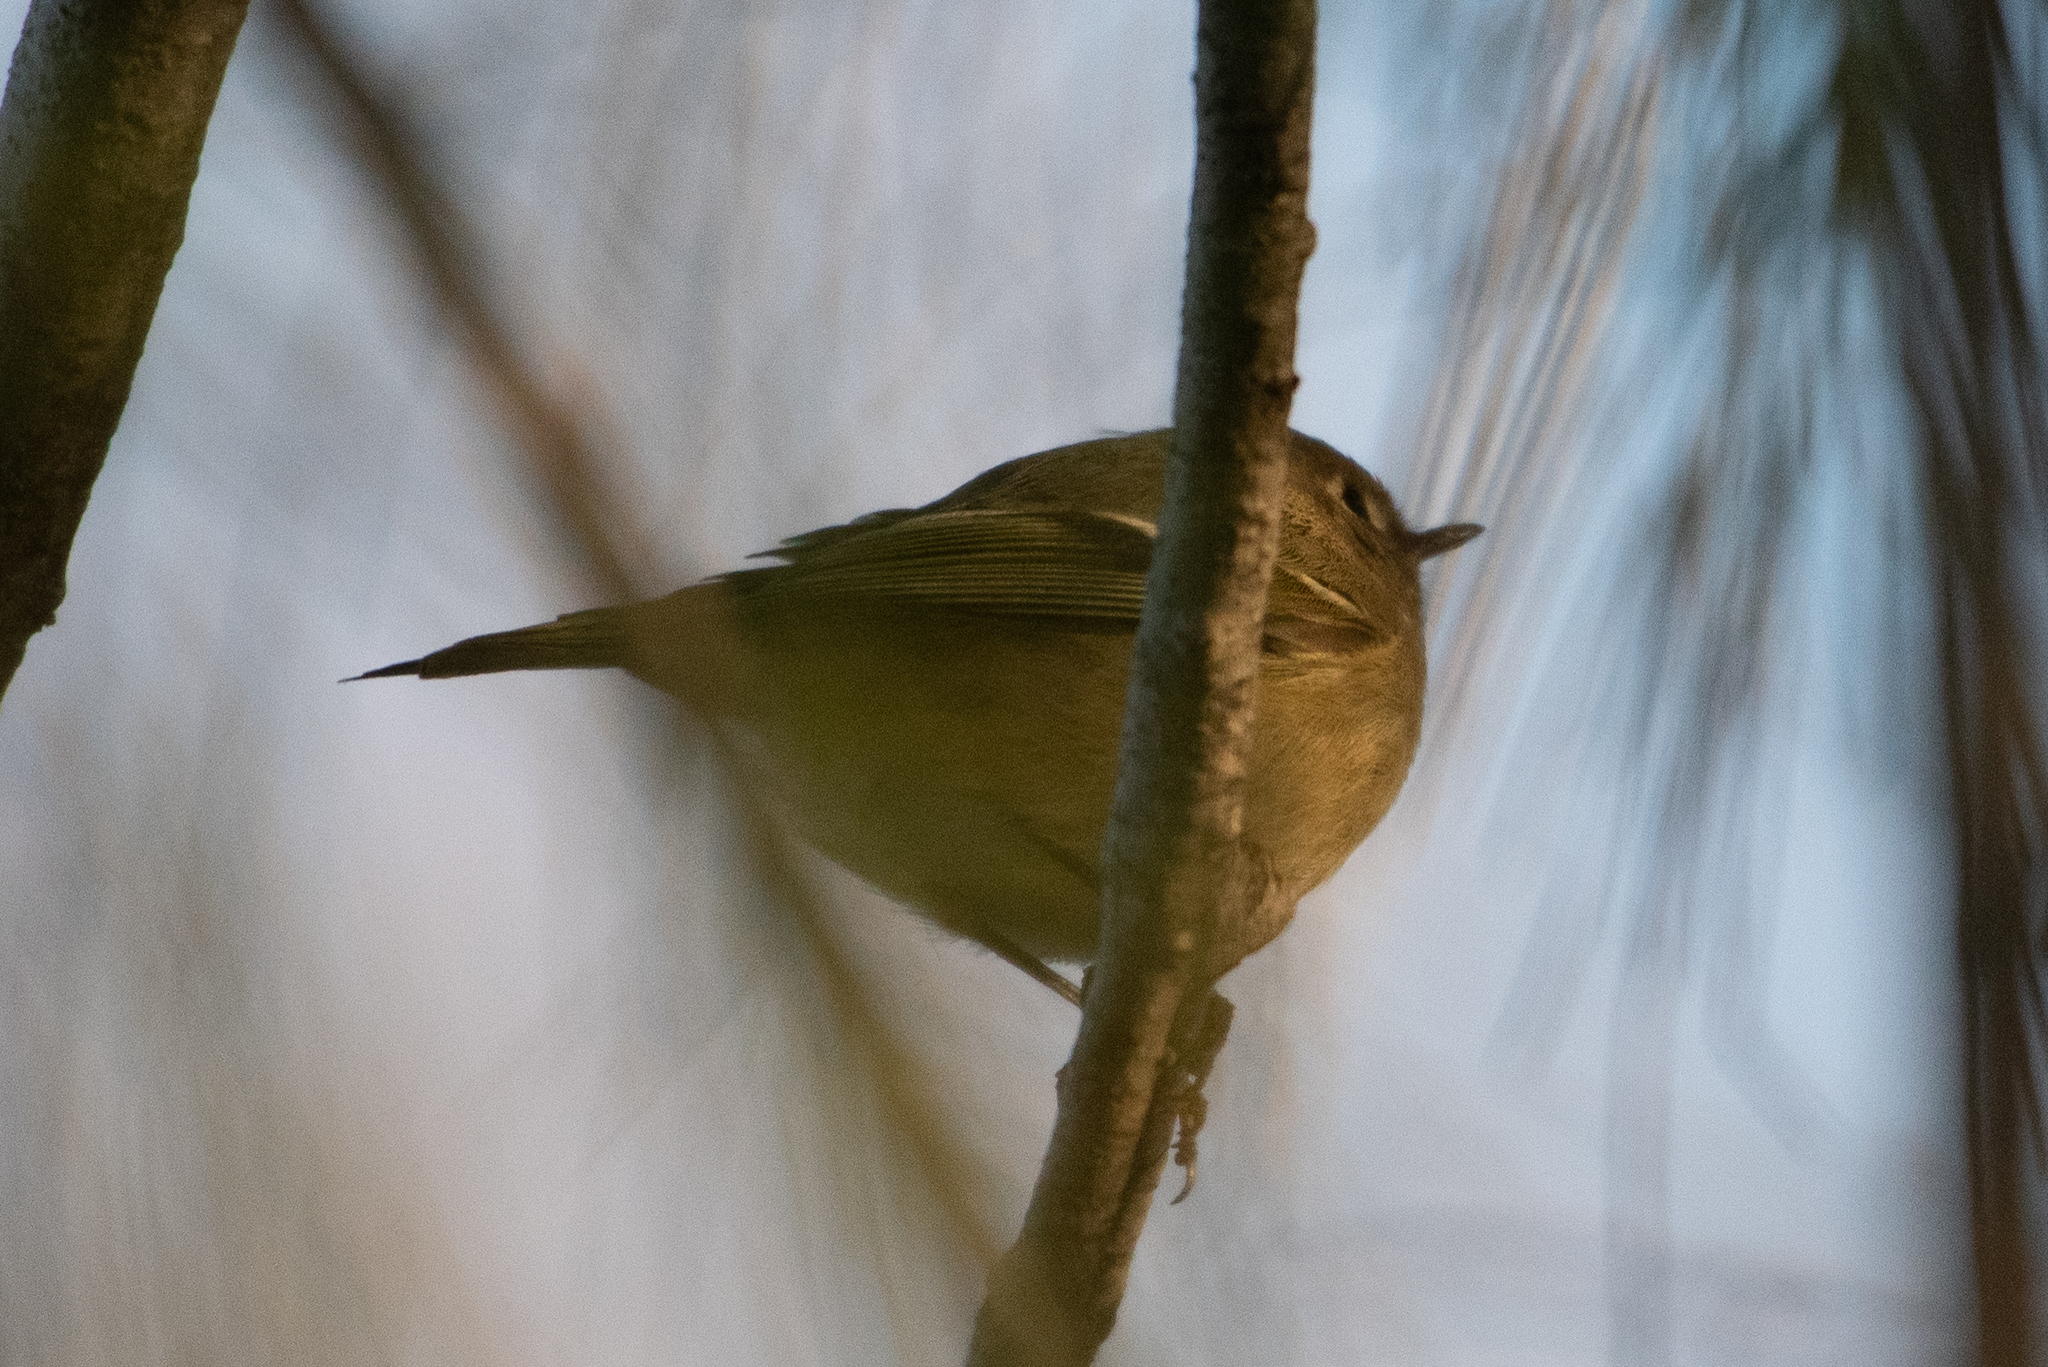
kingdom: Animalia
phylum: Chordata
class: Aves
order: Passeriformes
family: Regulidae
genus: Regulus
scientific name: Regulus calendula
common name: Ruby-crowned kinglet
